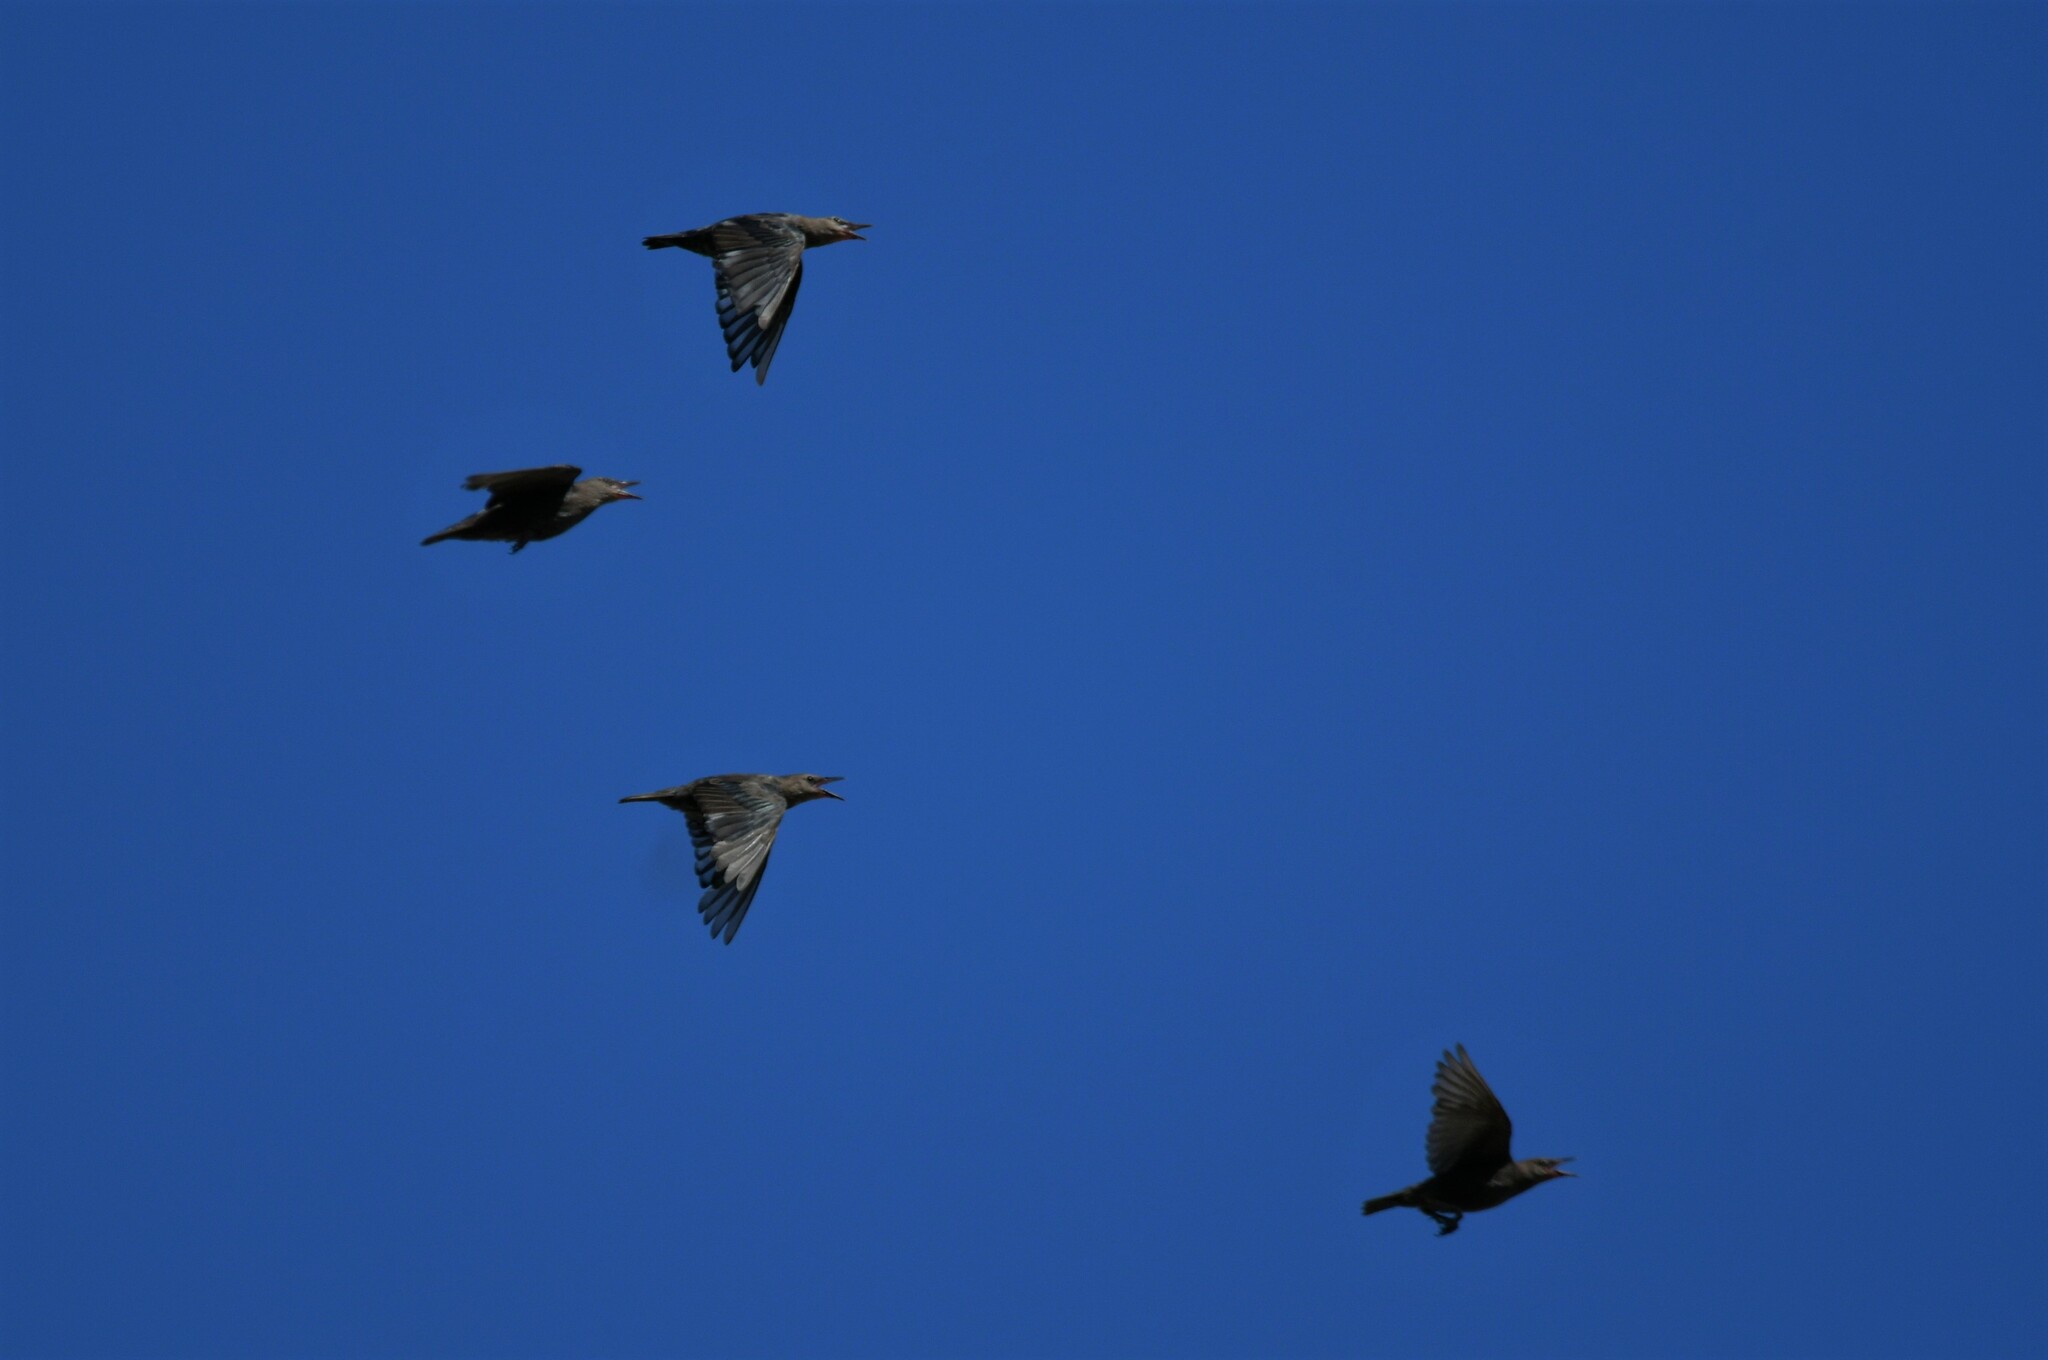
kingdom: Animalia
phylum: Chordata
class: Aves
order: Passeriformes
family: Sturnidae
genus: Sturnus
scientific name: Sturnus unicolor
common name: Spotless starling
